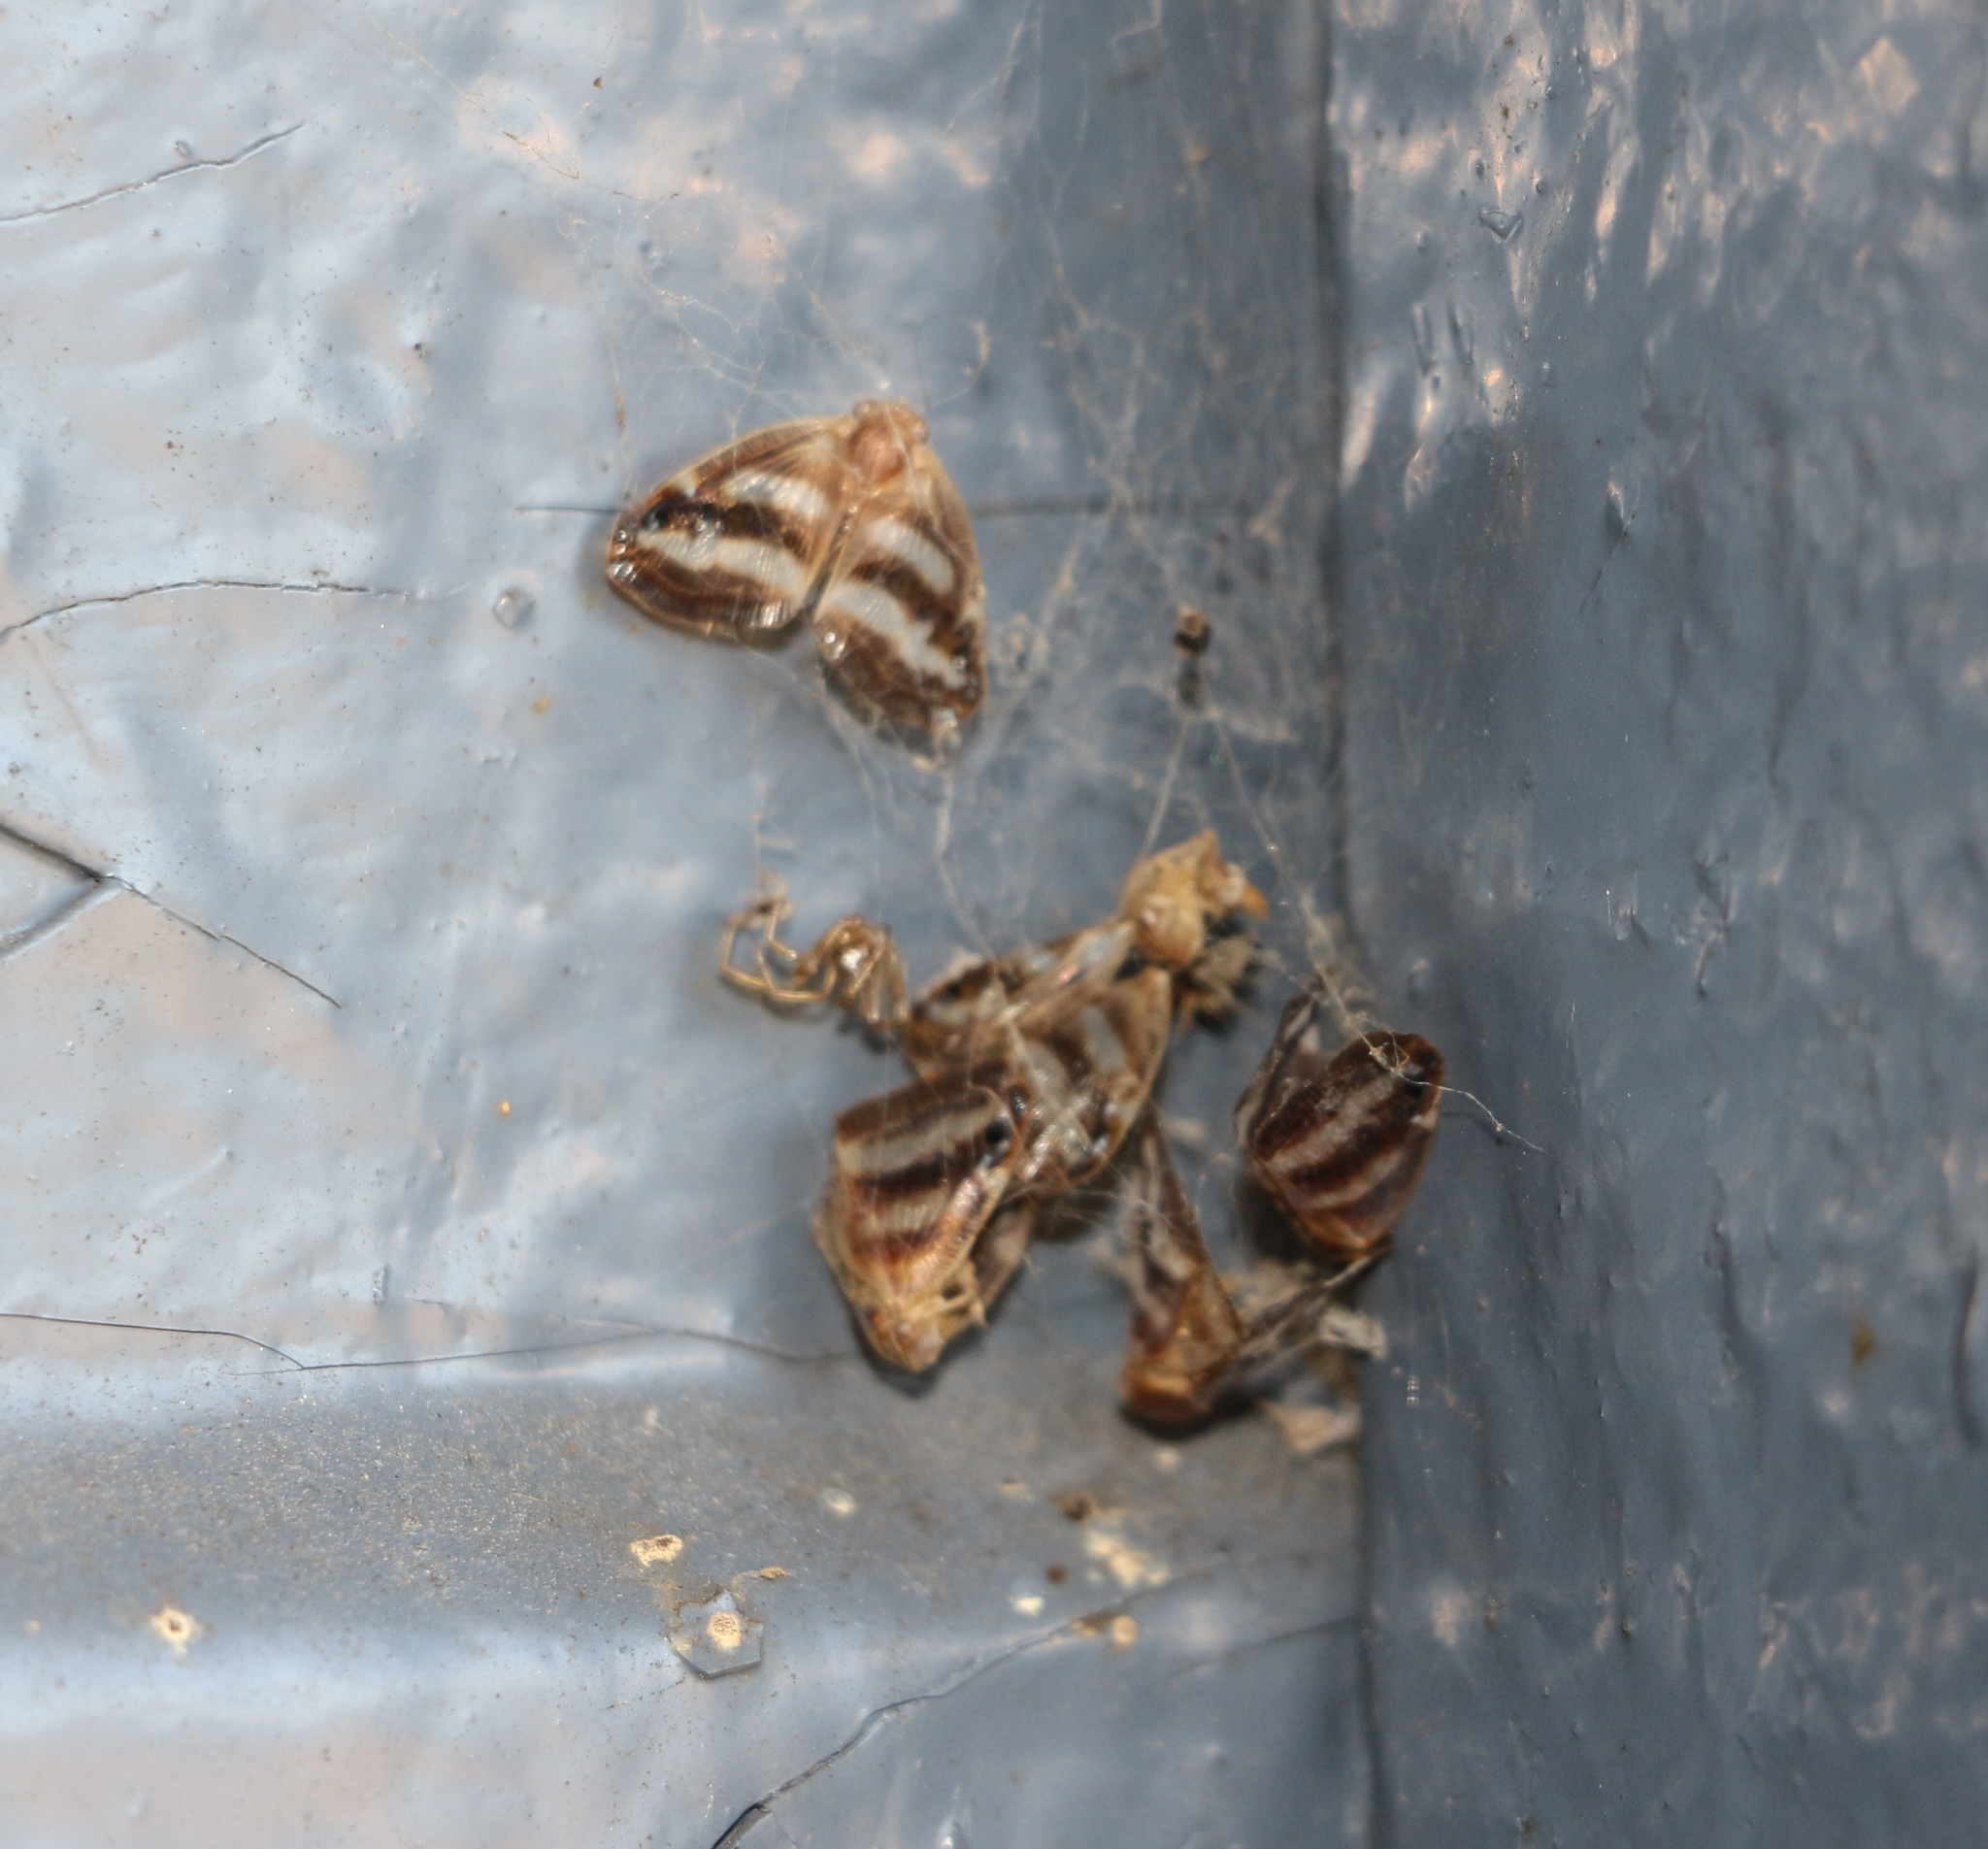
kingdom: Animalia
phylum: Arthropoda
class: Insecta
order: Hemiptera
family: Ricaniidae
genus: Orosanga
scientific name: Orosanga japonica
